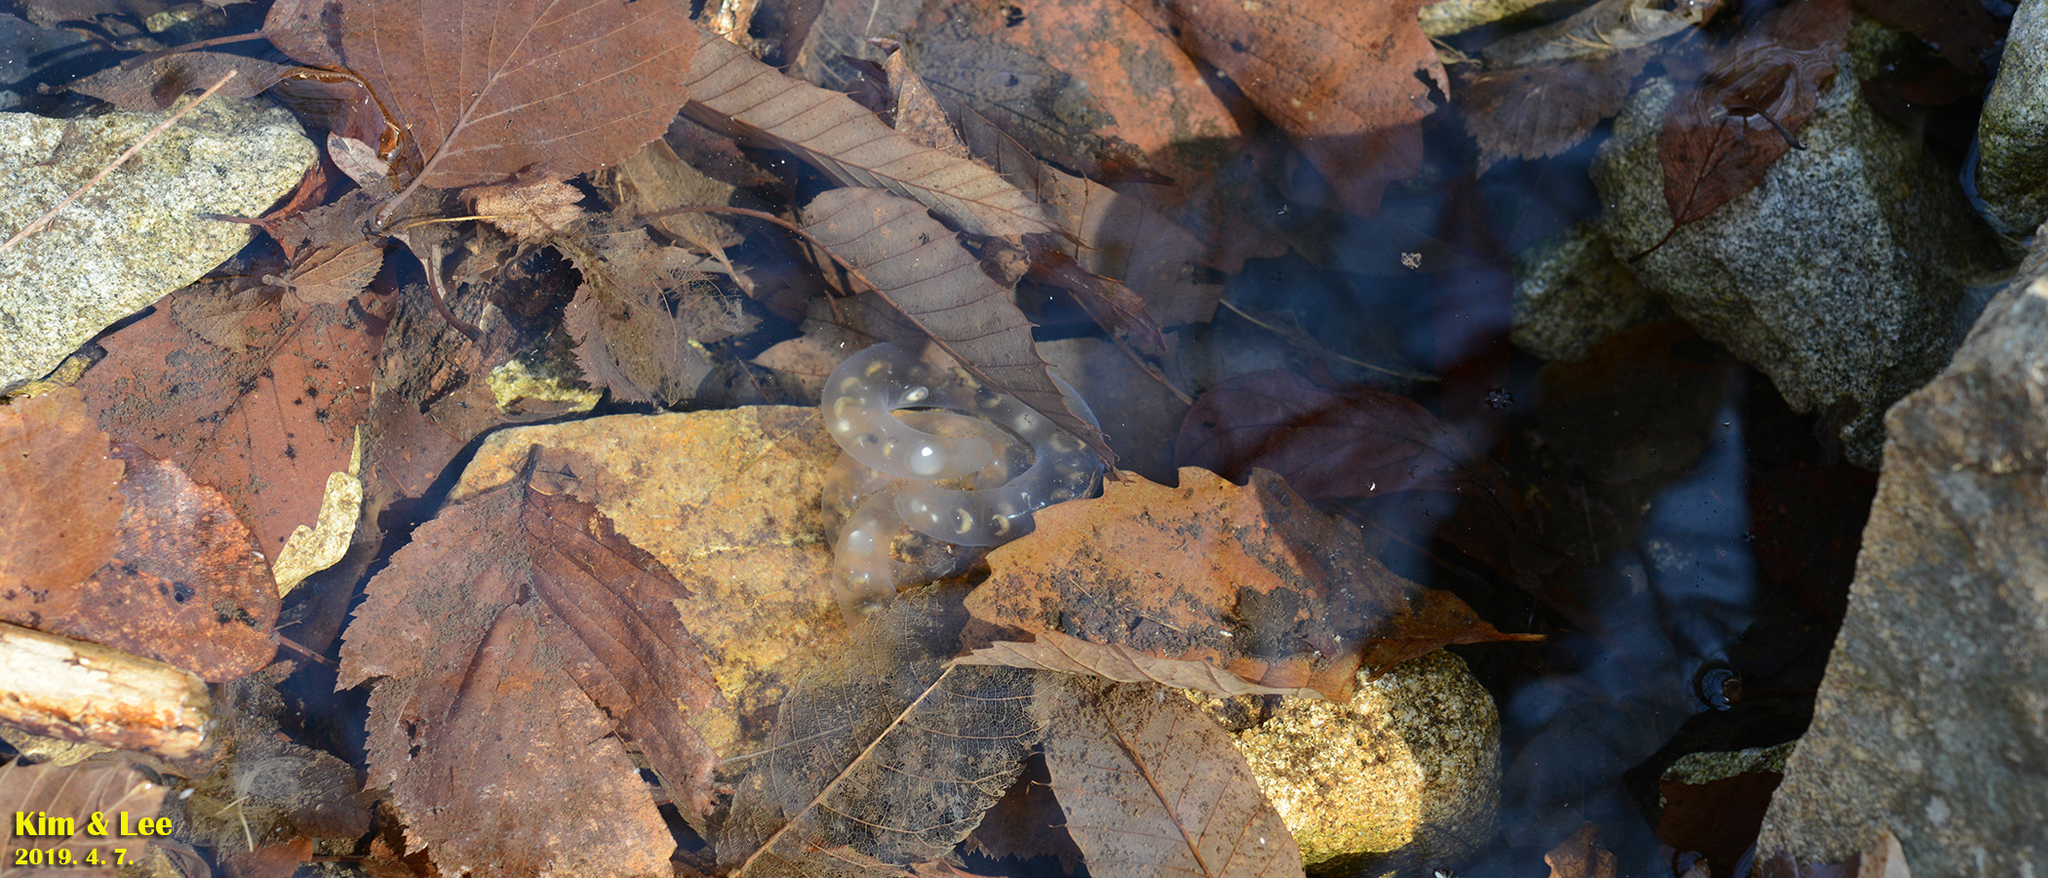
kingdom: Animalia
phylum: Chordata
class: Amphibia
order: Caudata
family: Hynobiidae
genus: Hynobius
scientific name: Hynobius leechii
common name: Gensan salamander
